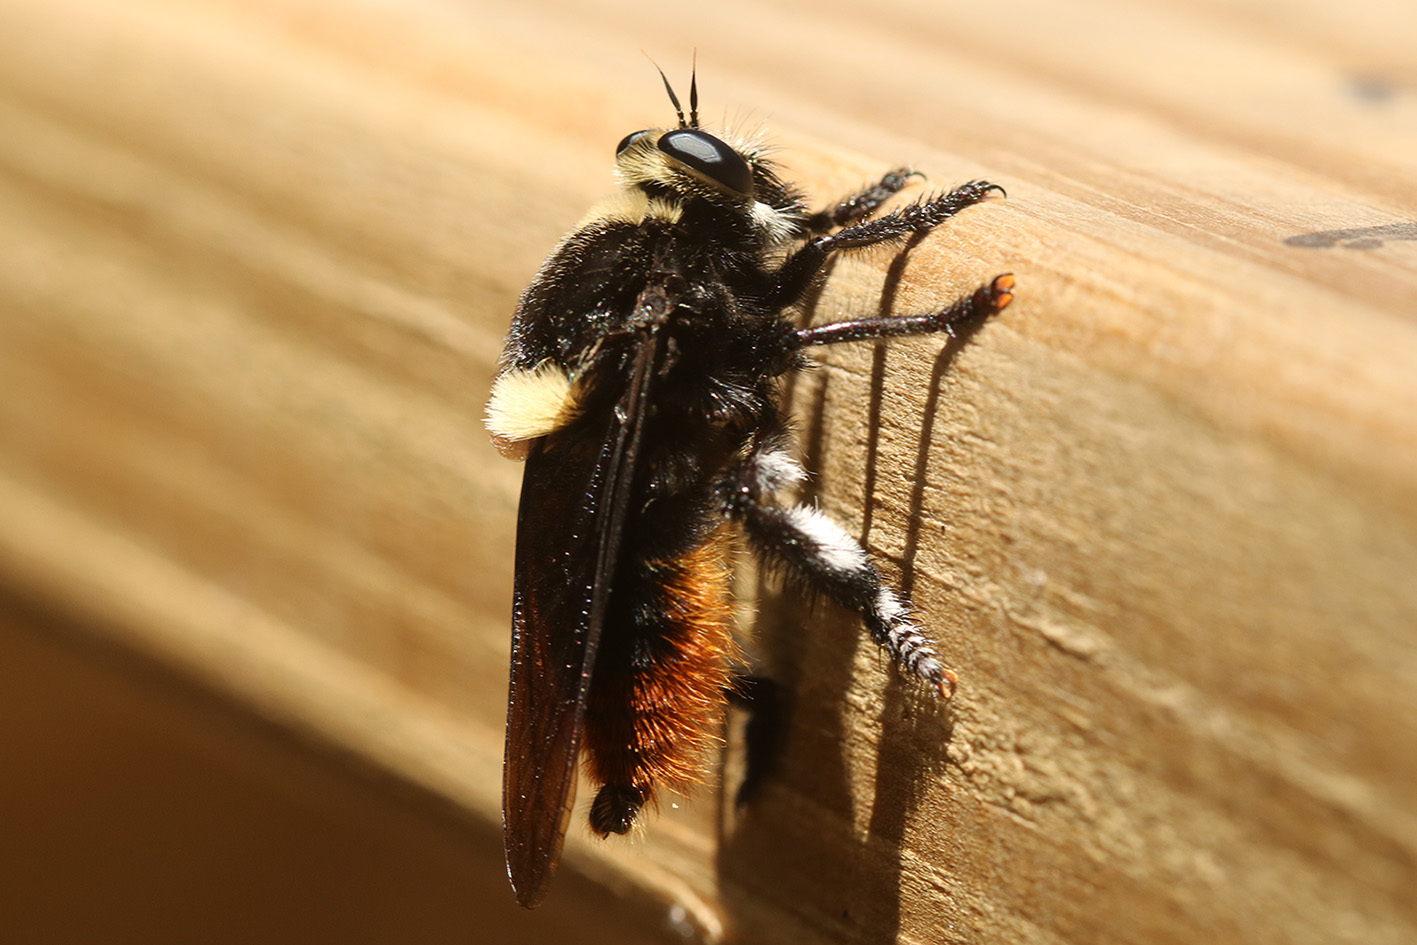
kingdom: Animalia
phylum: Arthropoda
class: Insecta
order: Diptera
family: Asilidae
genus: Mallophora
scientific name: Mallophora ruficauda
